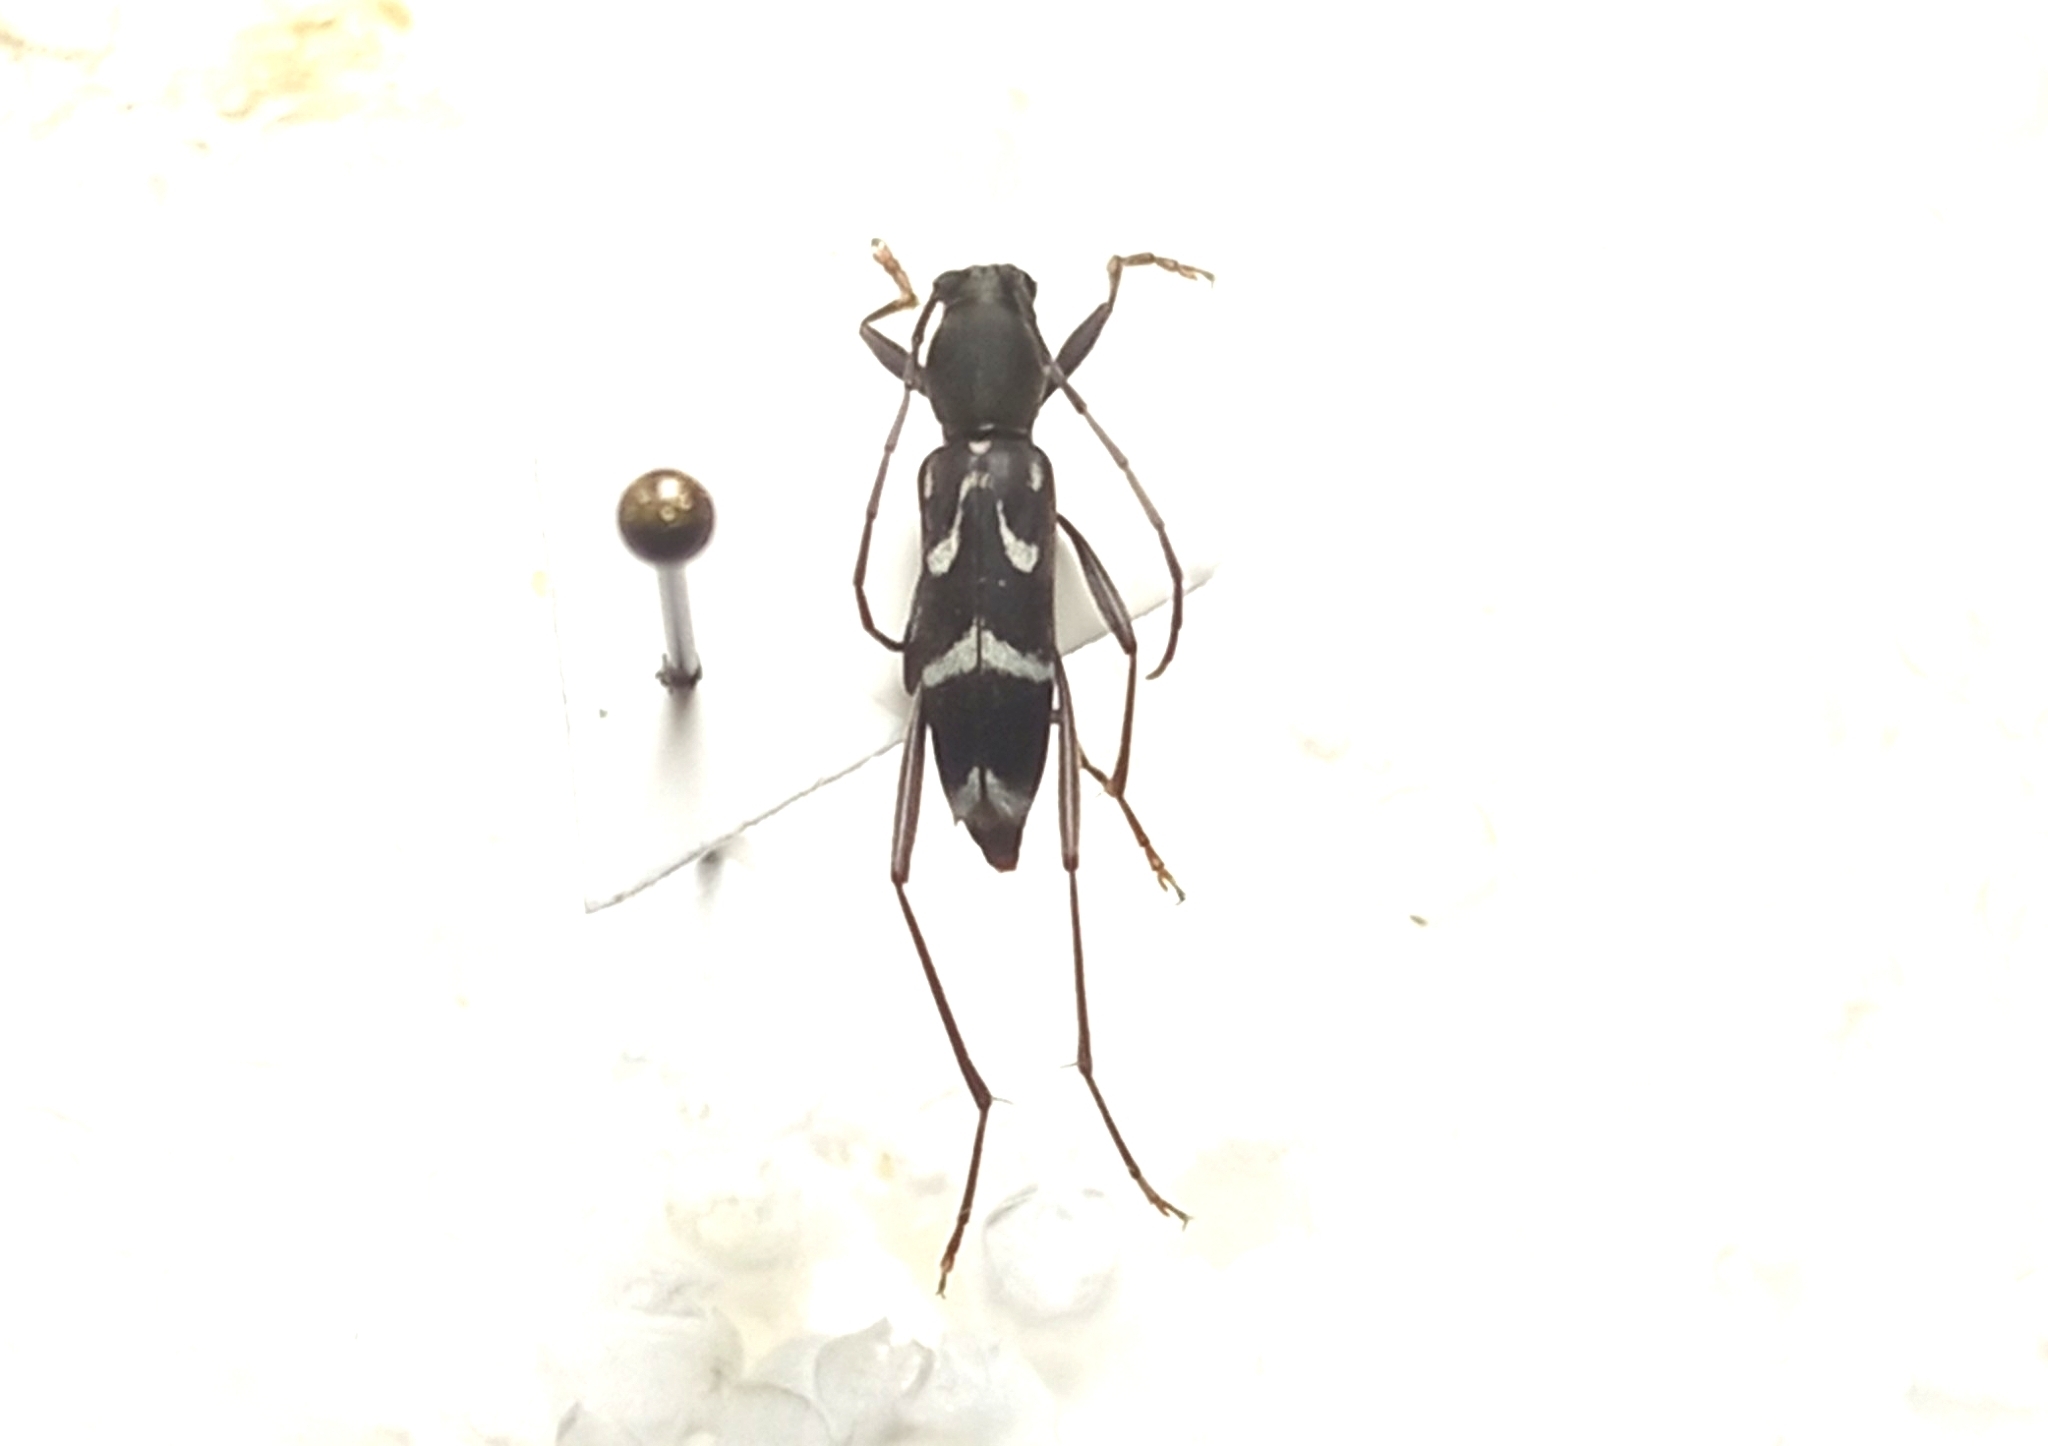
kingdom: Animalia
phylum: Arthropoda
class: Insecta
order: Coleoptera
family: Cerambycidae
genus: Rhaphuma
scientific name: Rhaphuma gracilipes
